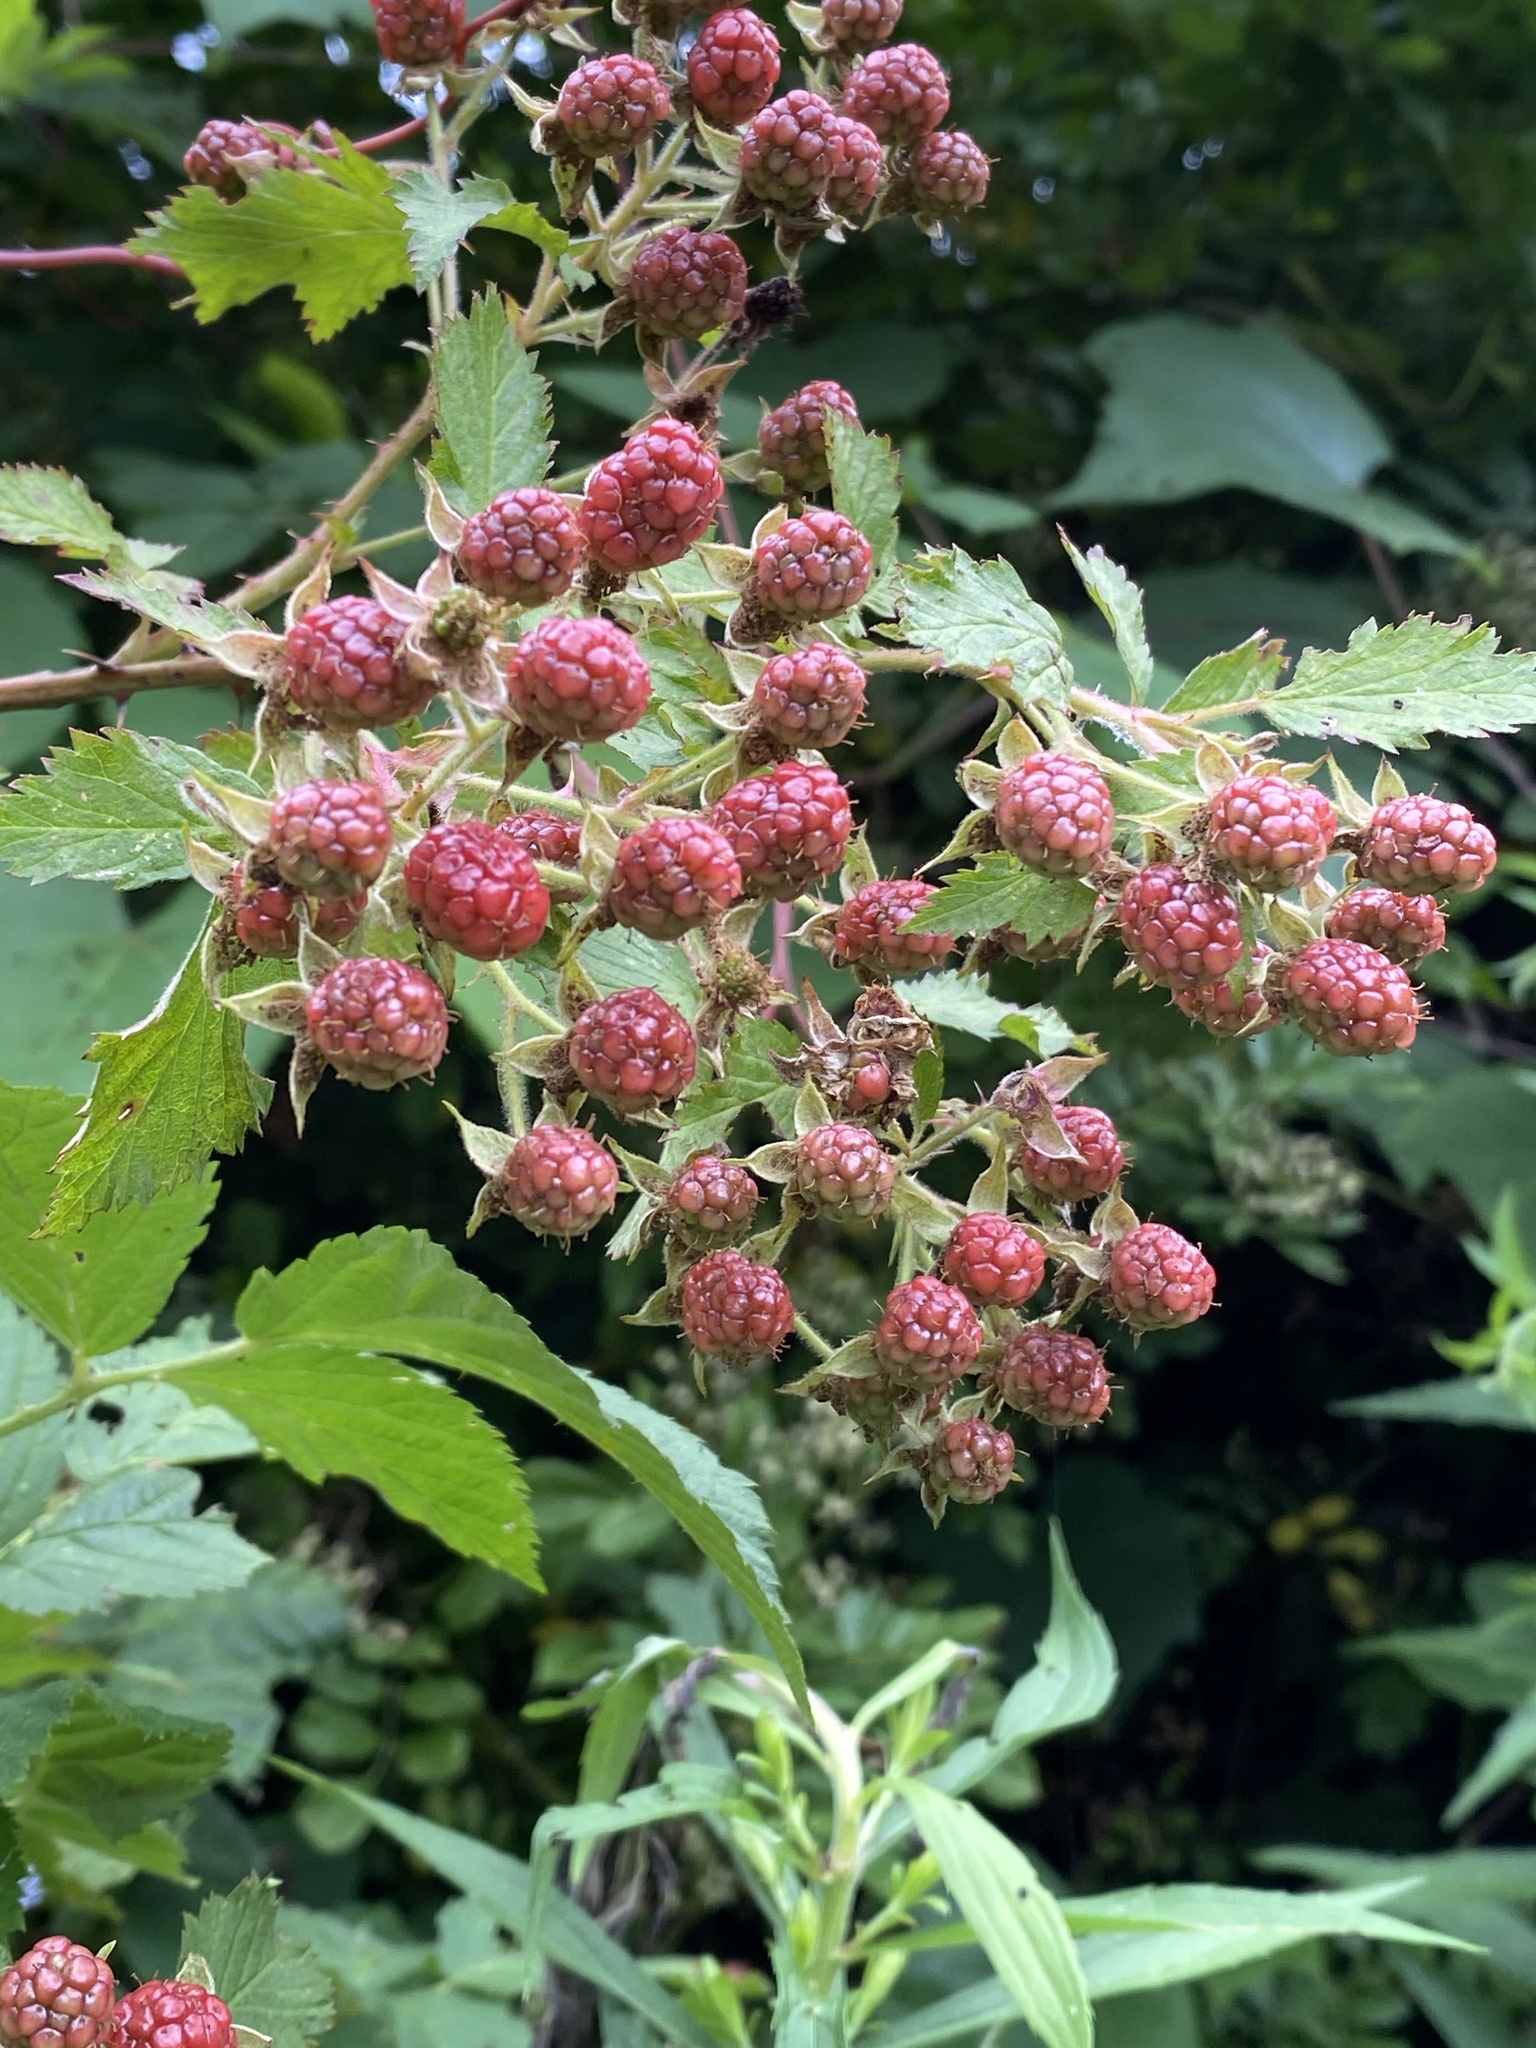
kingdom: Plantae
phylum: Tracheophyta
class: Magnoliopsida
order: Rosales
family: Rosaceae
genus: Rubus
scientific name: Rubus allegheniensis
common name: Allegheny blackberry
